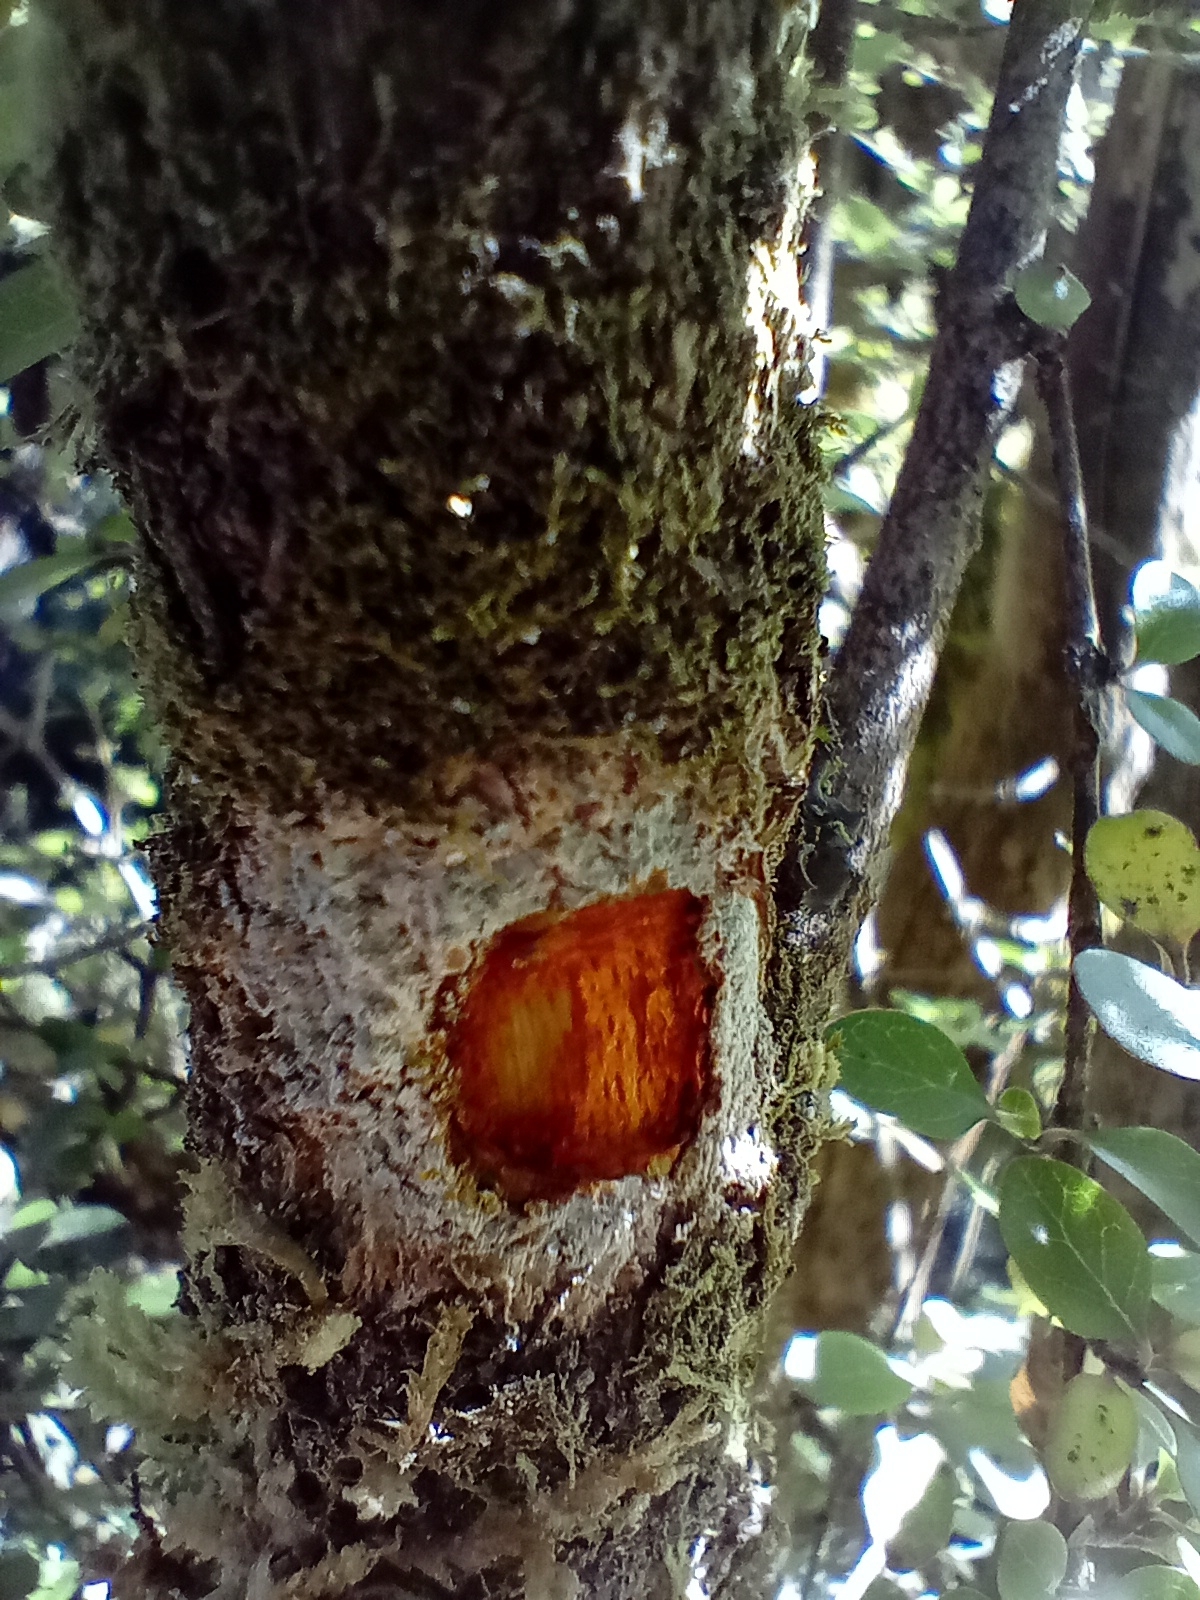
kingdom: Plantae
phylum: Tracheophyta
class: Magnoliopsida
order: Gentianales
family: Rubiaceae
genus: Coprosma
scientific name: Coprosma wallii
